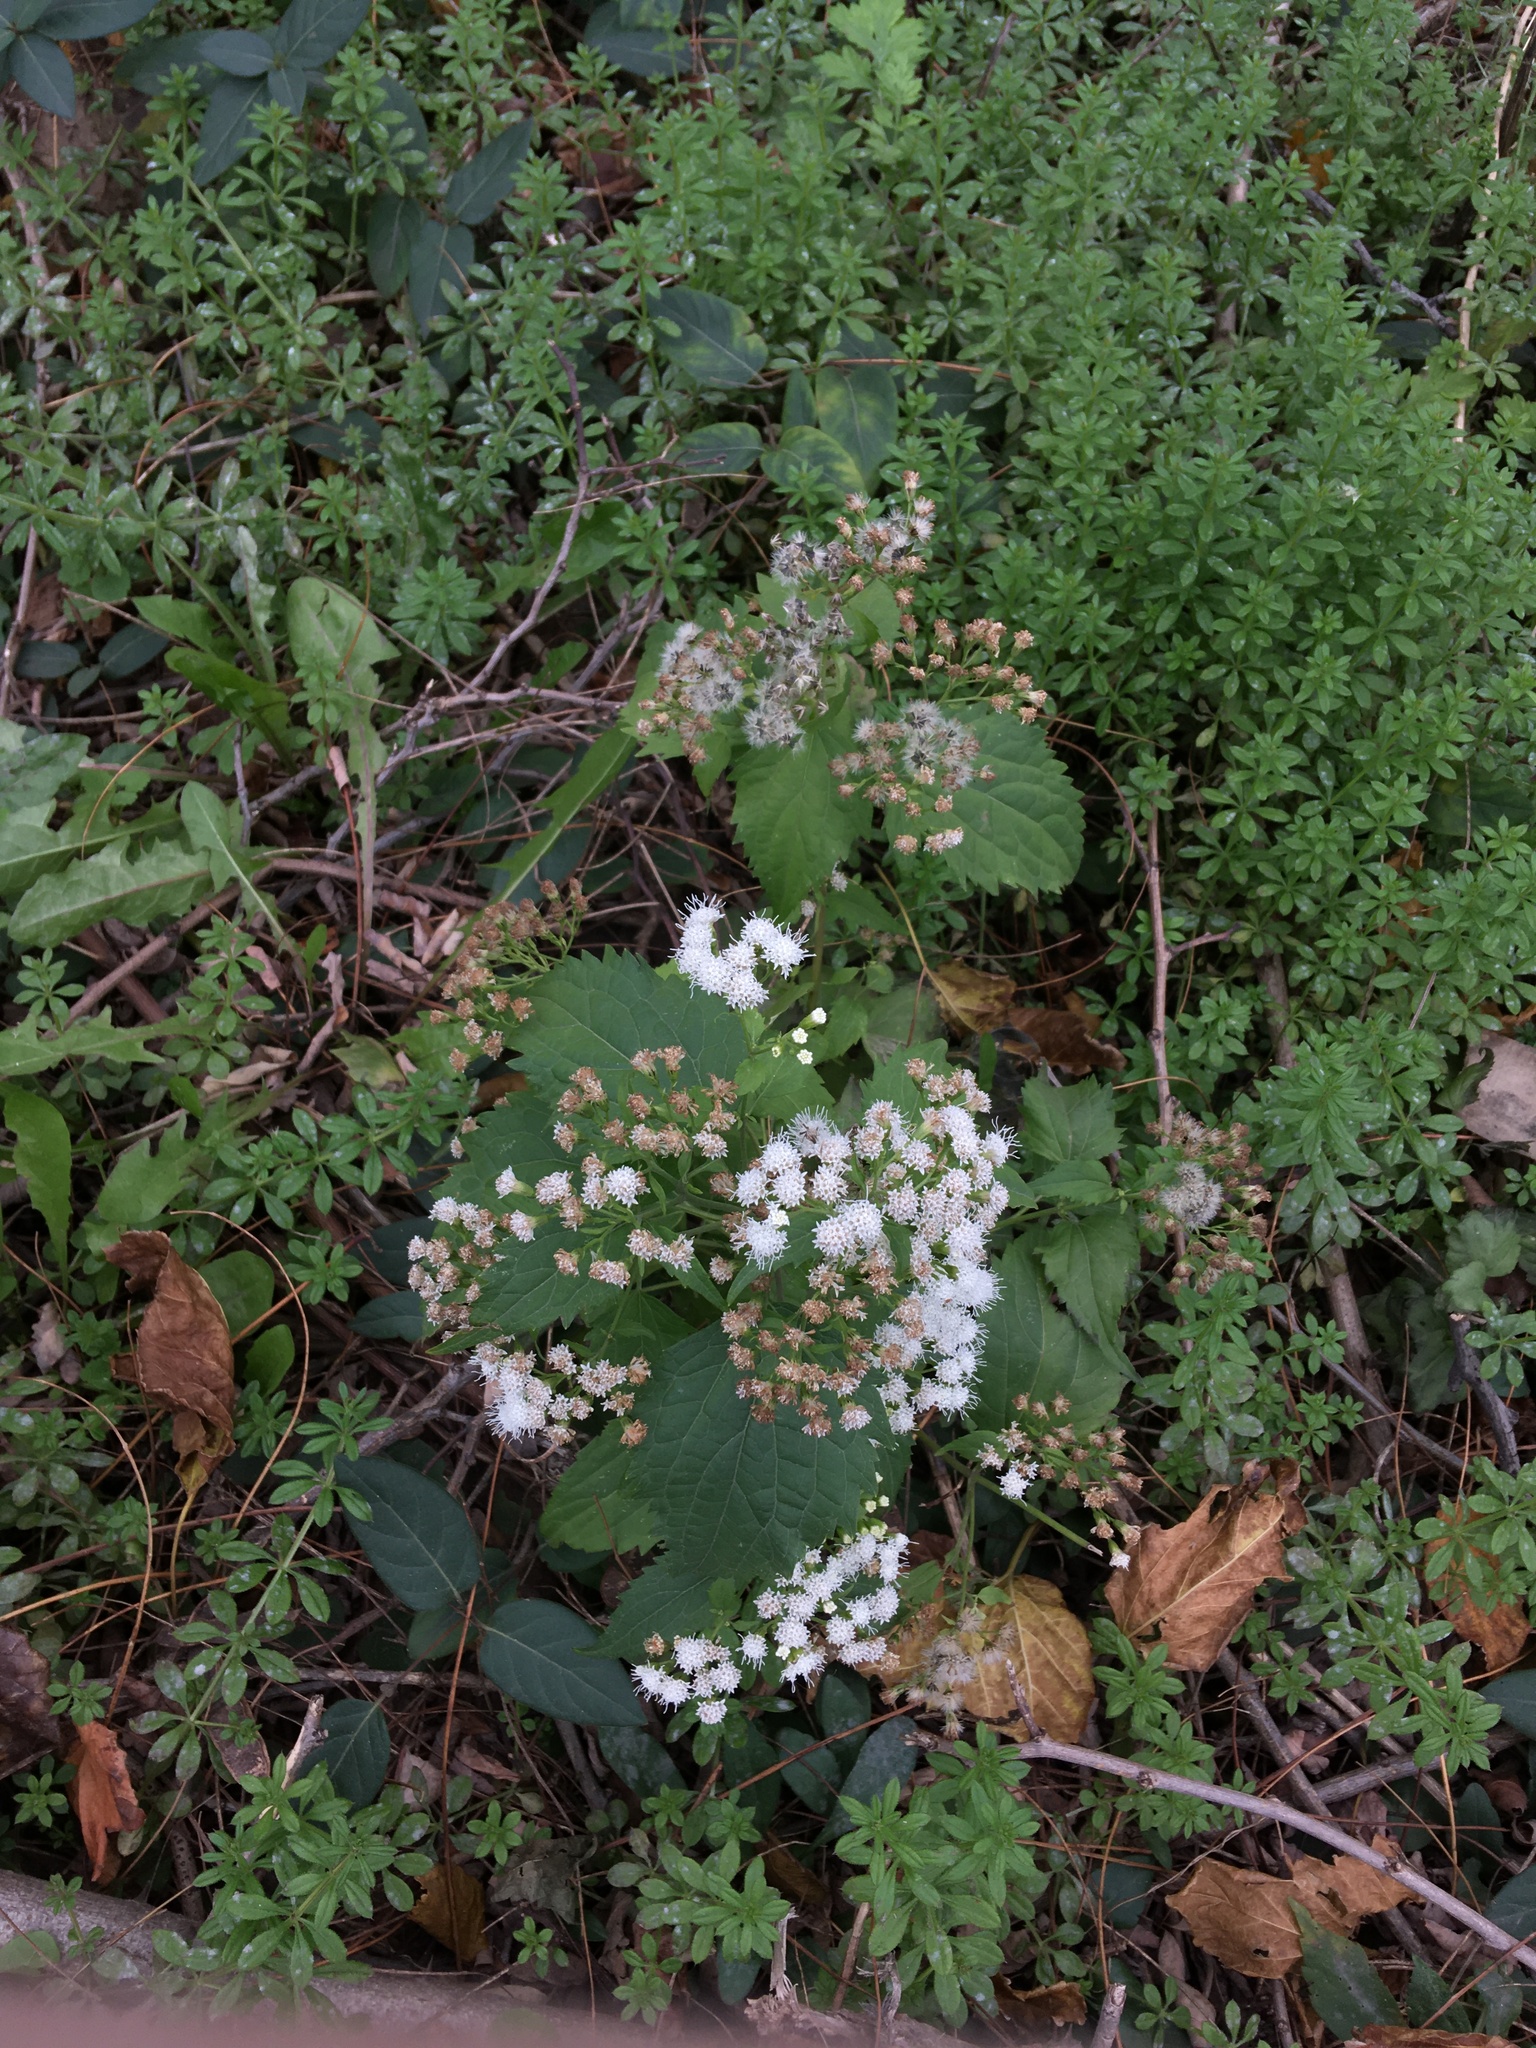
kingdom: Plantae
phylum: Tracheophyta
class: Magnoliopsida
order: Asterales
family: Asteraceae
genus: Ageratina
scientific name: Ageratina altissima
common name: White snakeroot
